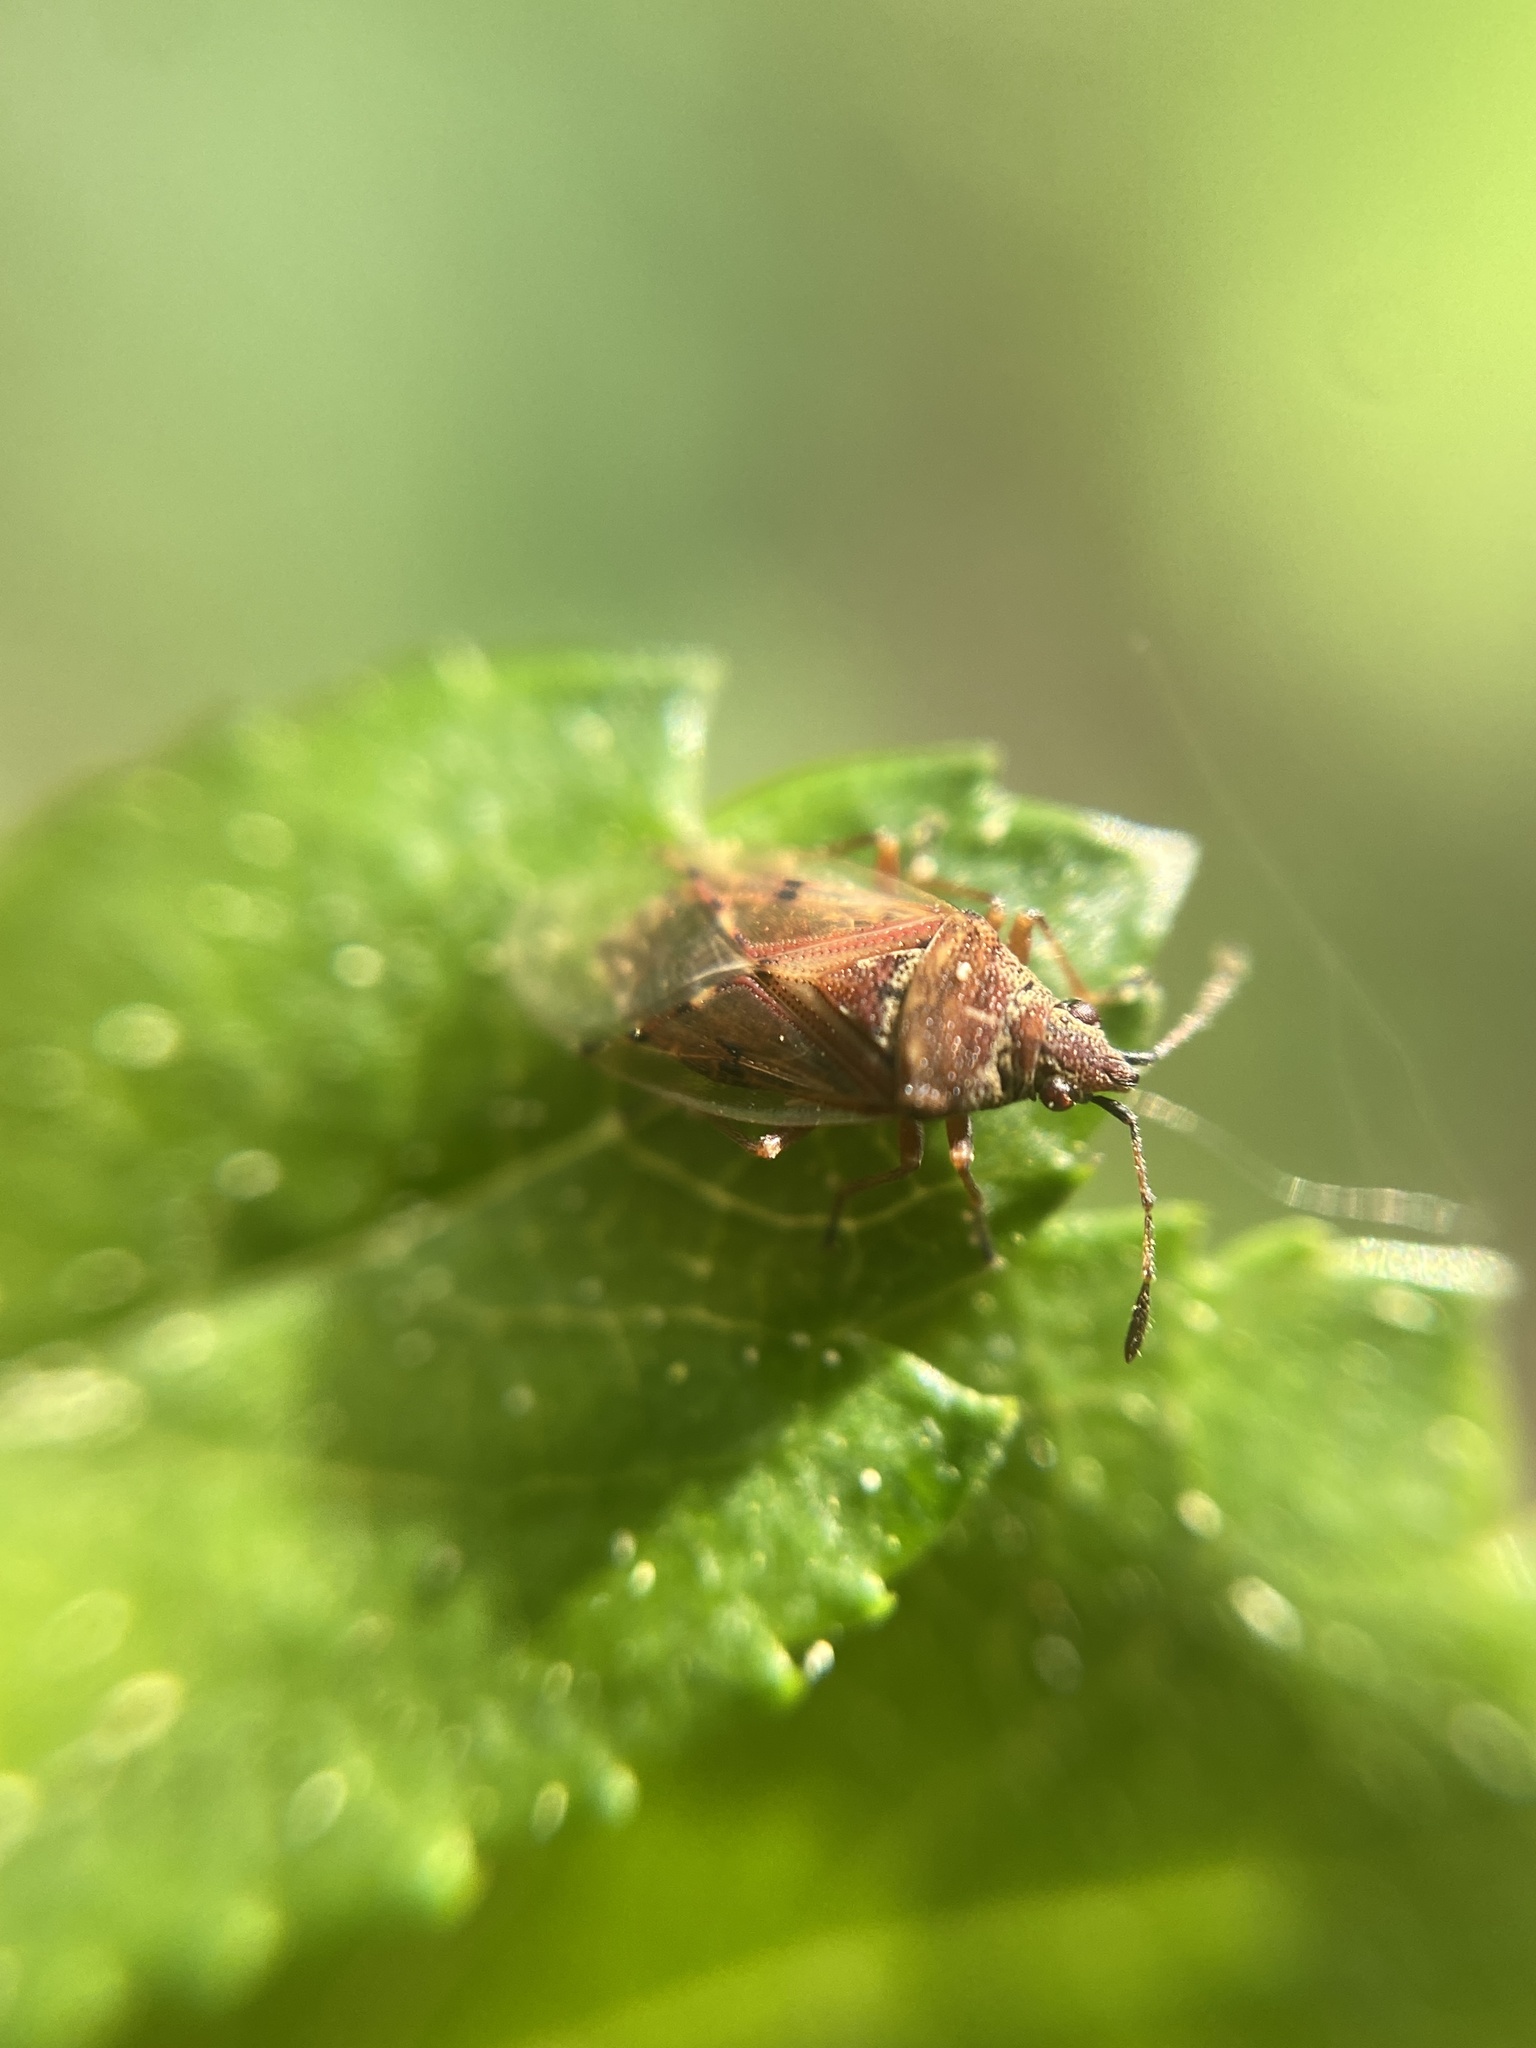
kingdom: Animalia
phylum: Arthropoda
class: Insecta
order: Hemiptera
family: Lygaeidae
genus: Kleidocerys
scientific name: Kleidocerys resedae
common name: Birch catkin bug
